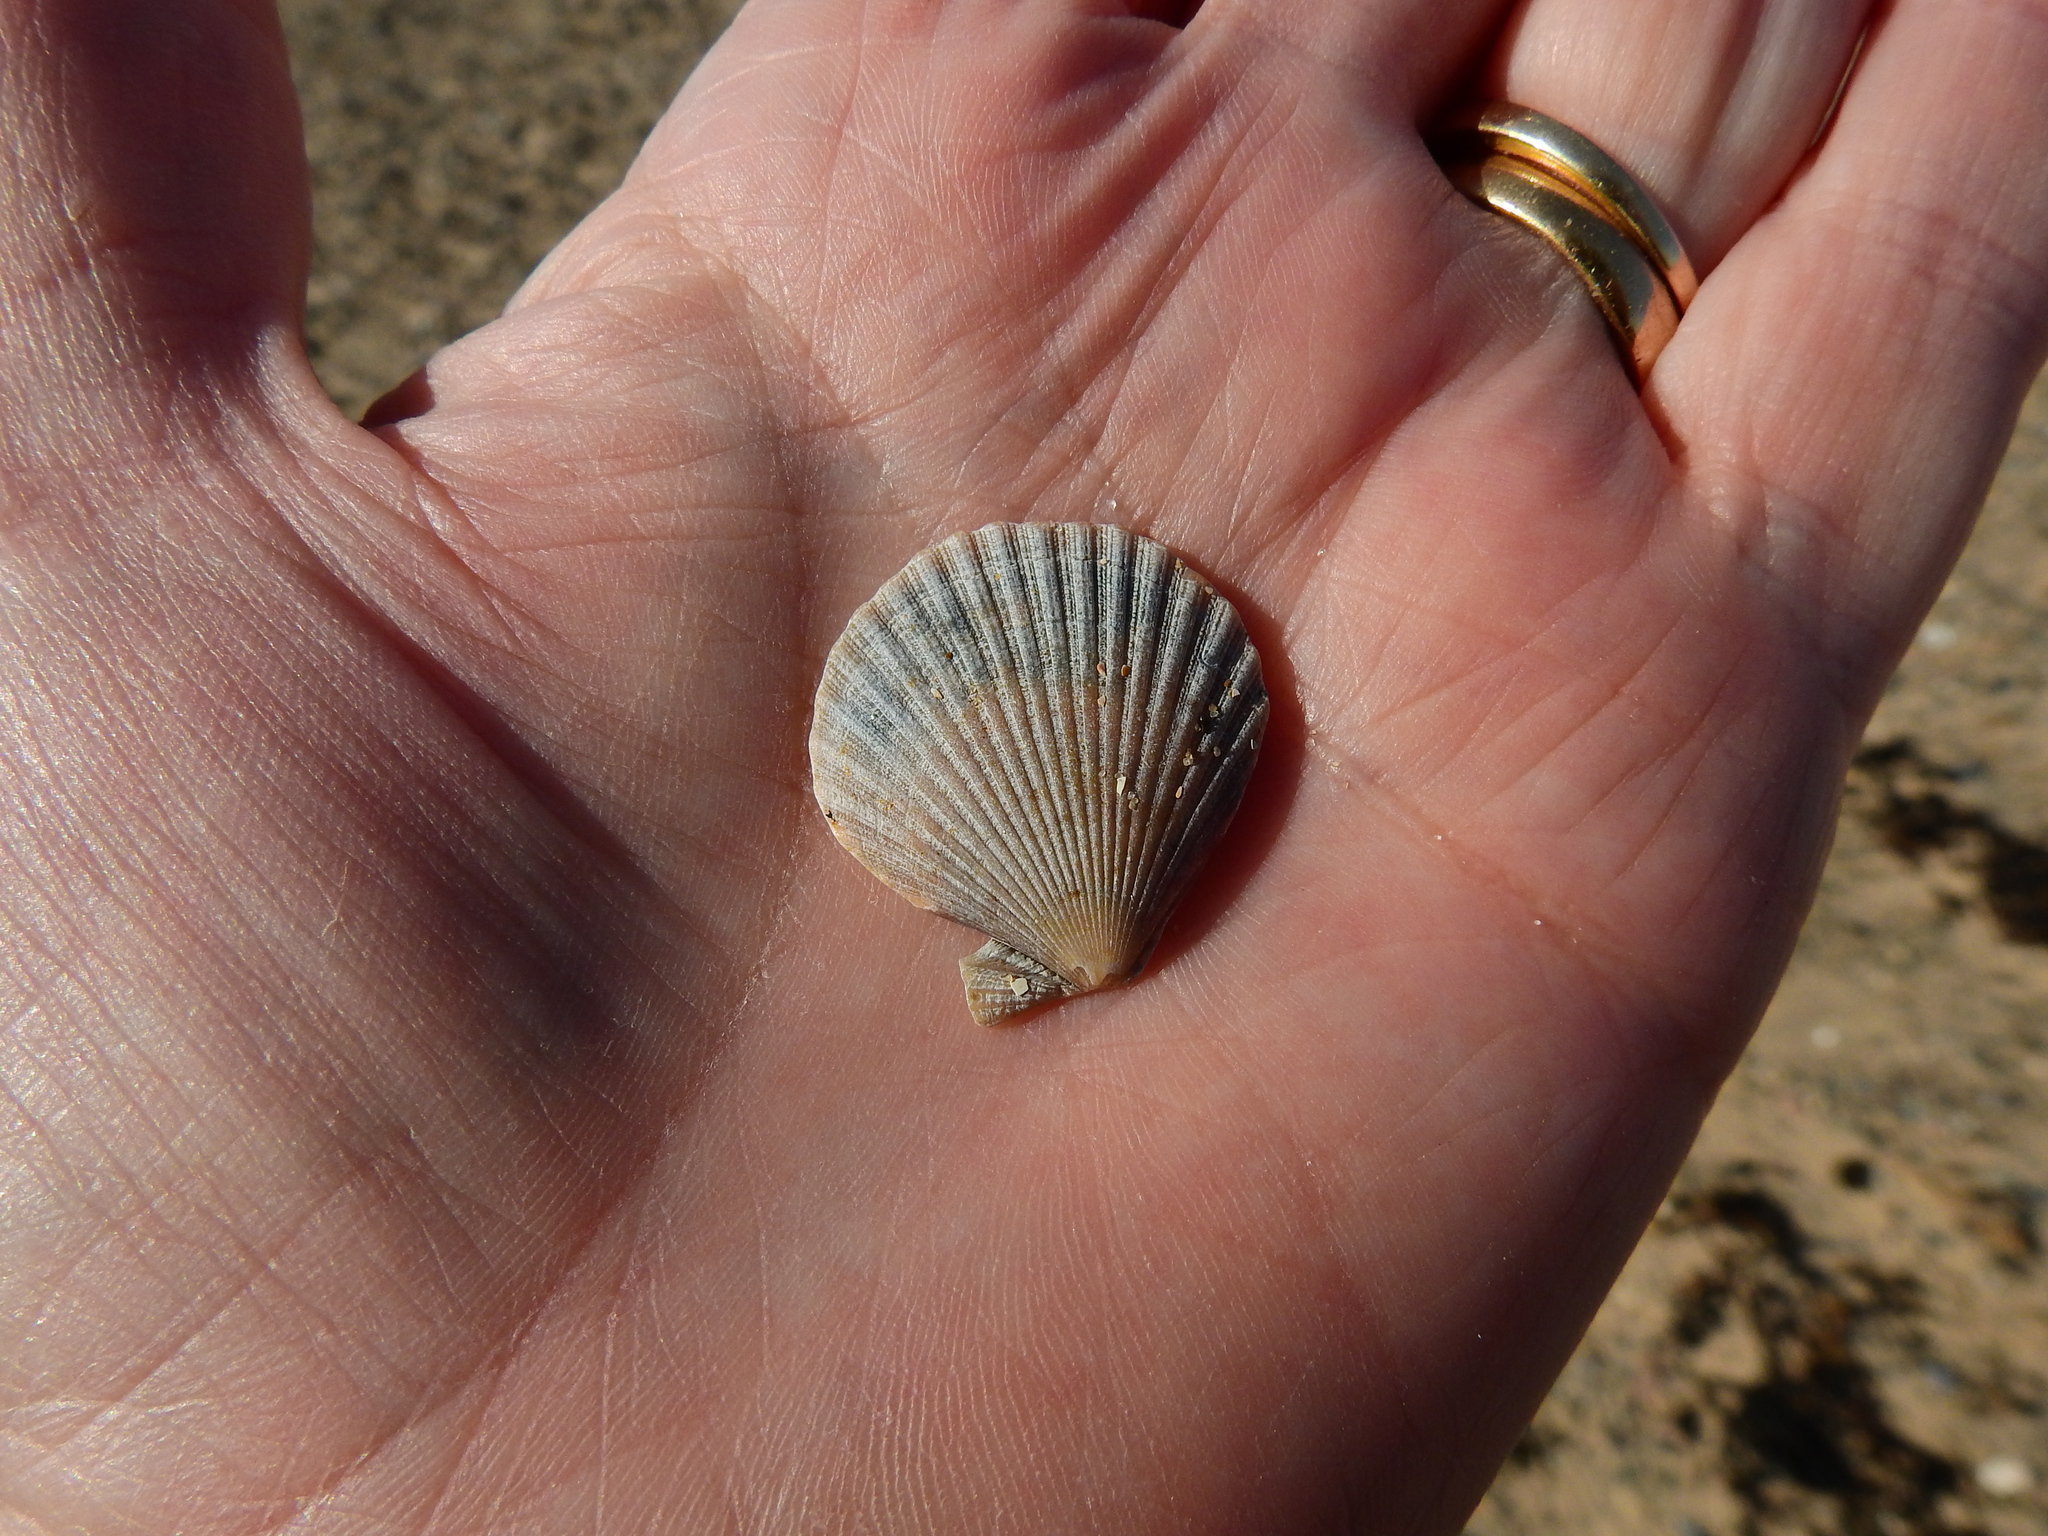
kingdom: Animalia
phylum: Mollusca
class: Bivalvia
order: Pectinida
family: Pectinidae
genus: Aequipecten
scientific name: Aequipecten opercularis
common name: Queen scallop
